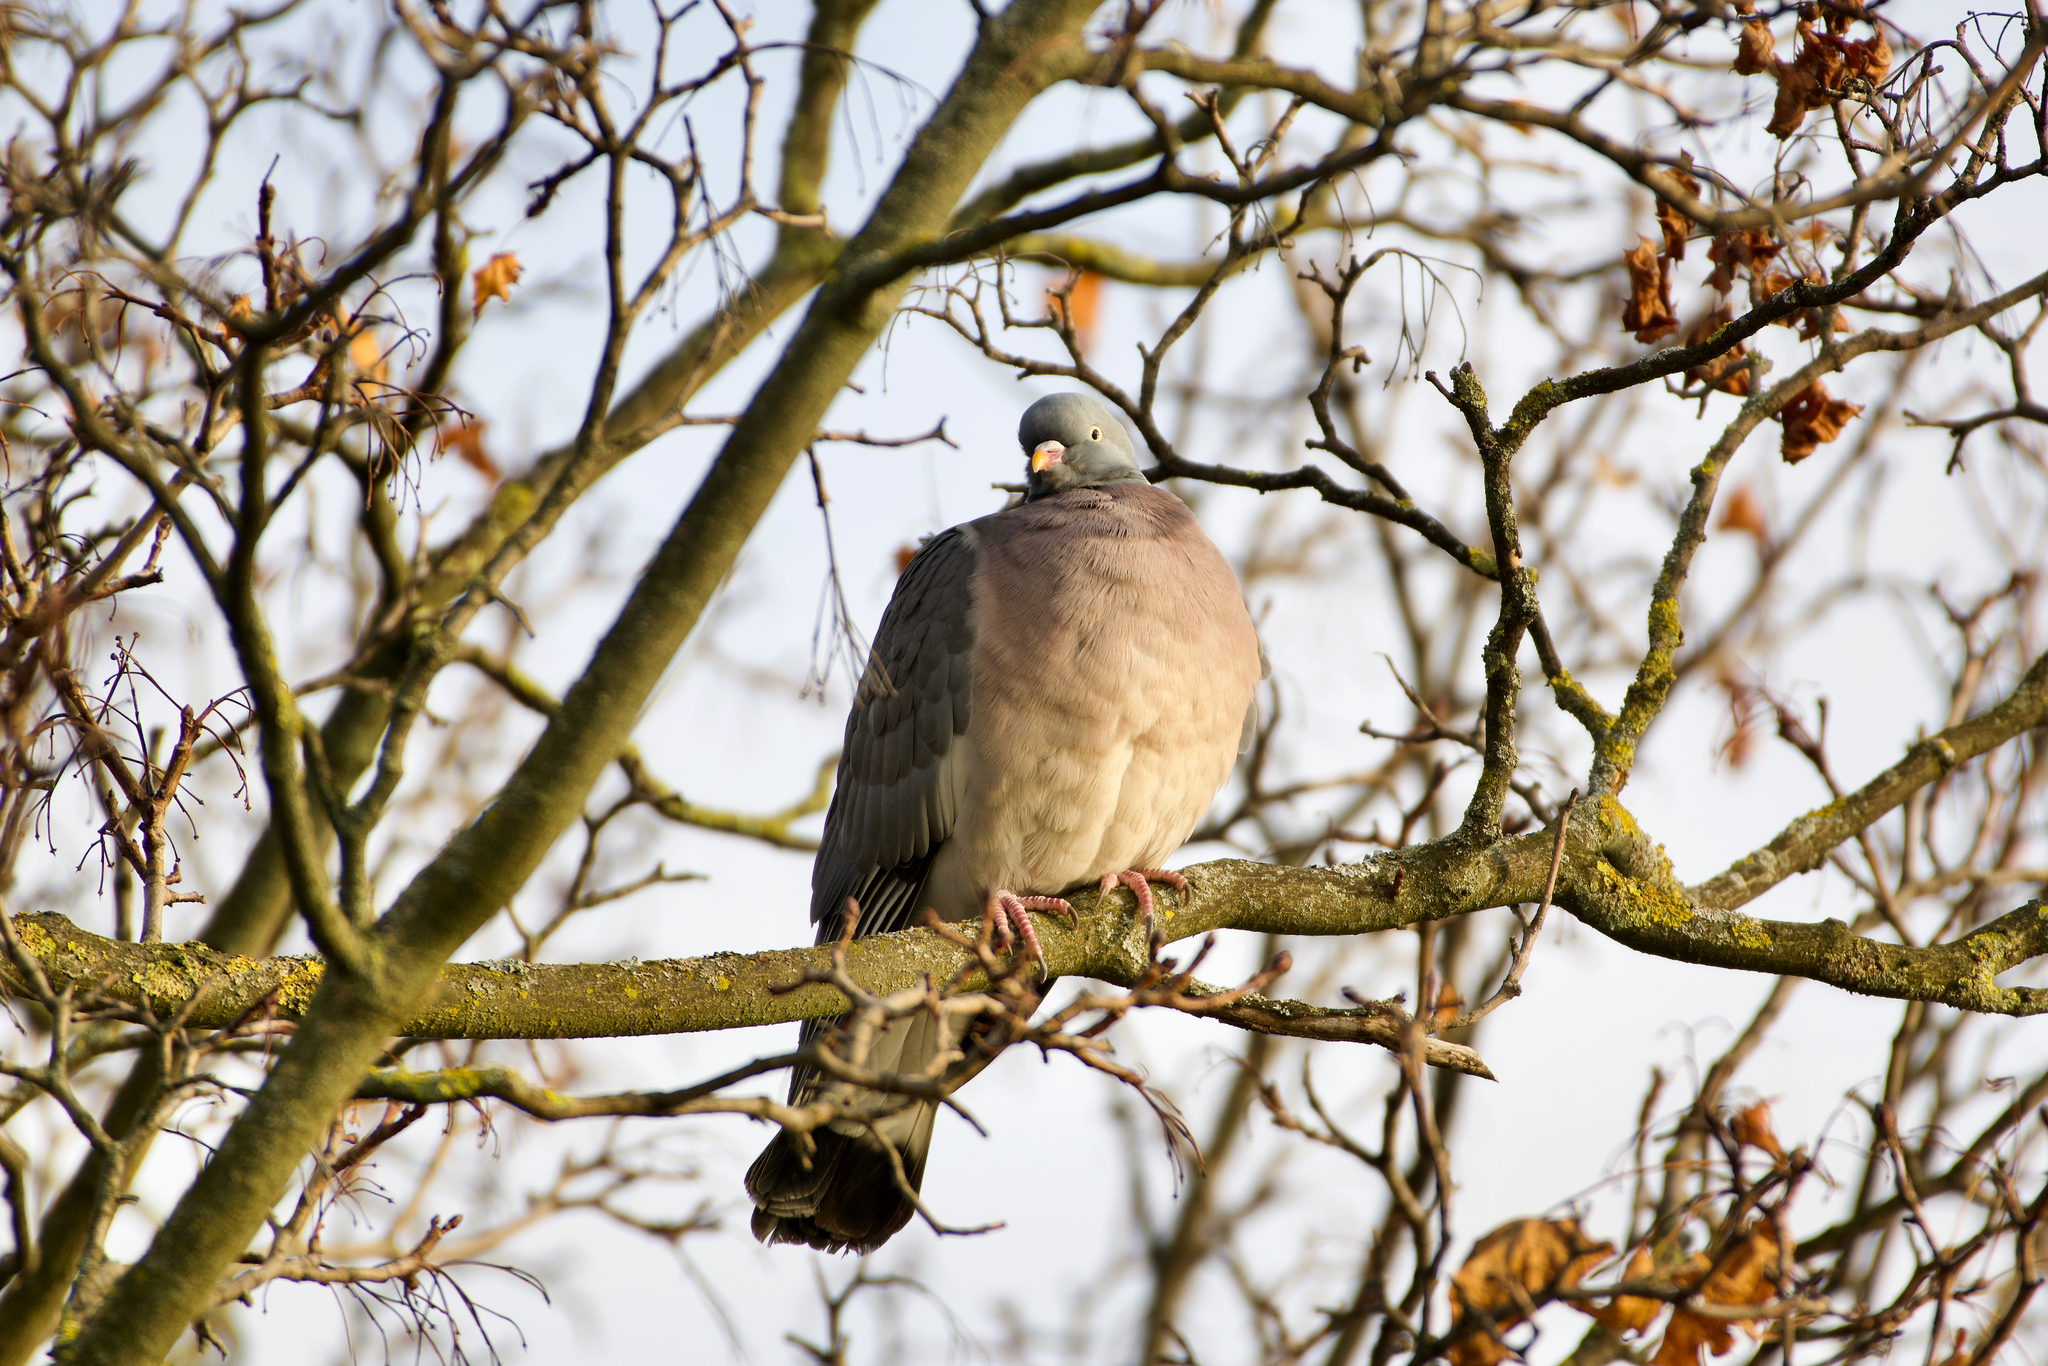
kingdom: Animalia
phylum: Chordata
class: Aves
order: Columbiformes
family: Columbidae
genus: Columba
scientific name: Columba palumbus
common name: Common wood pigeon
